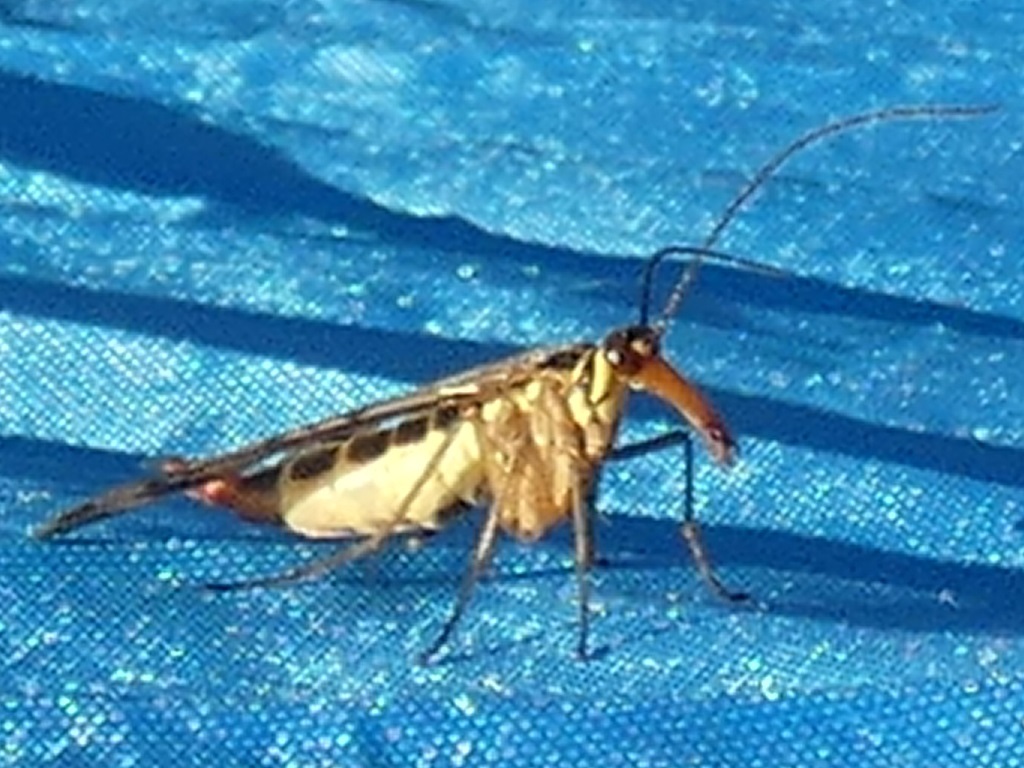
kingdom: Animalia
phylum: Arthropoda
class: Insecta
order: Mecoptera
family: Panorpidae
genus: Panorpa
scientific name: Panorpa communis
